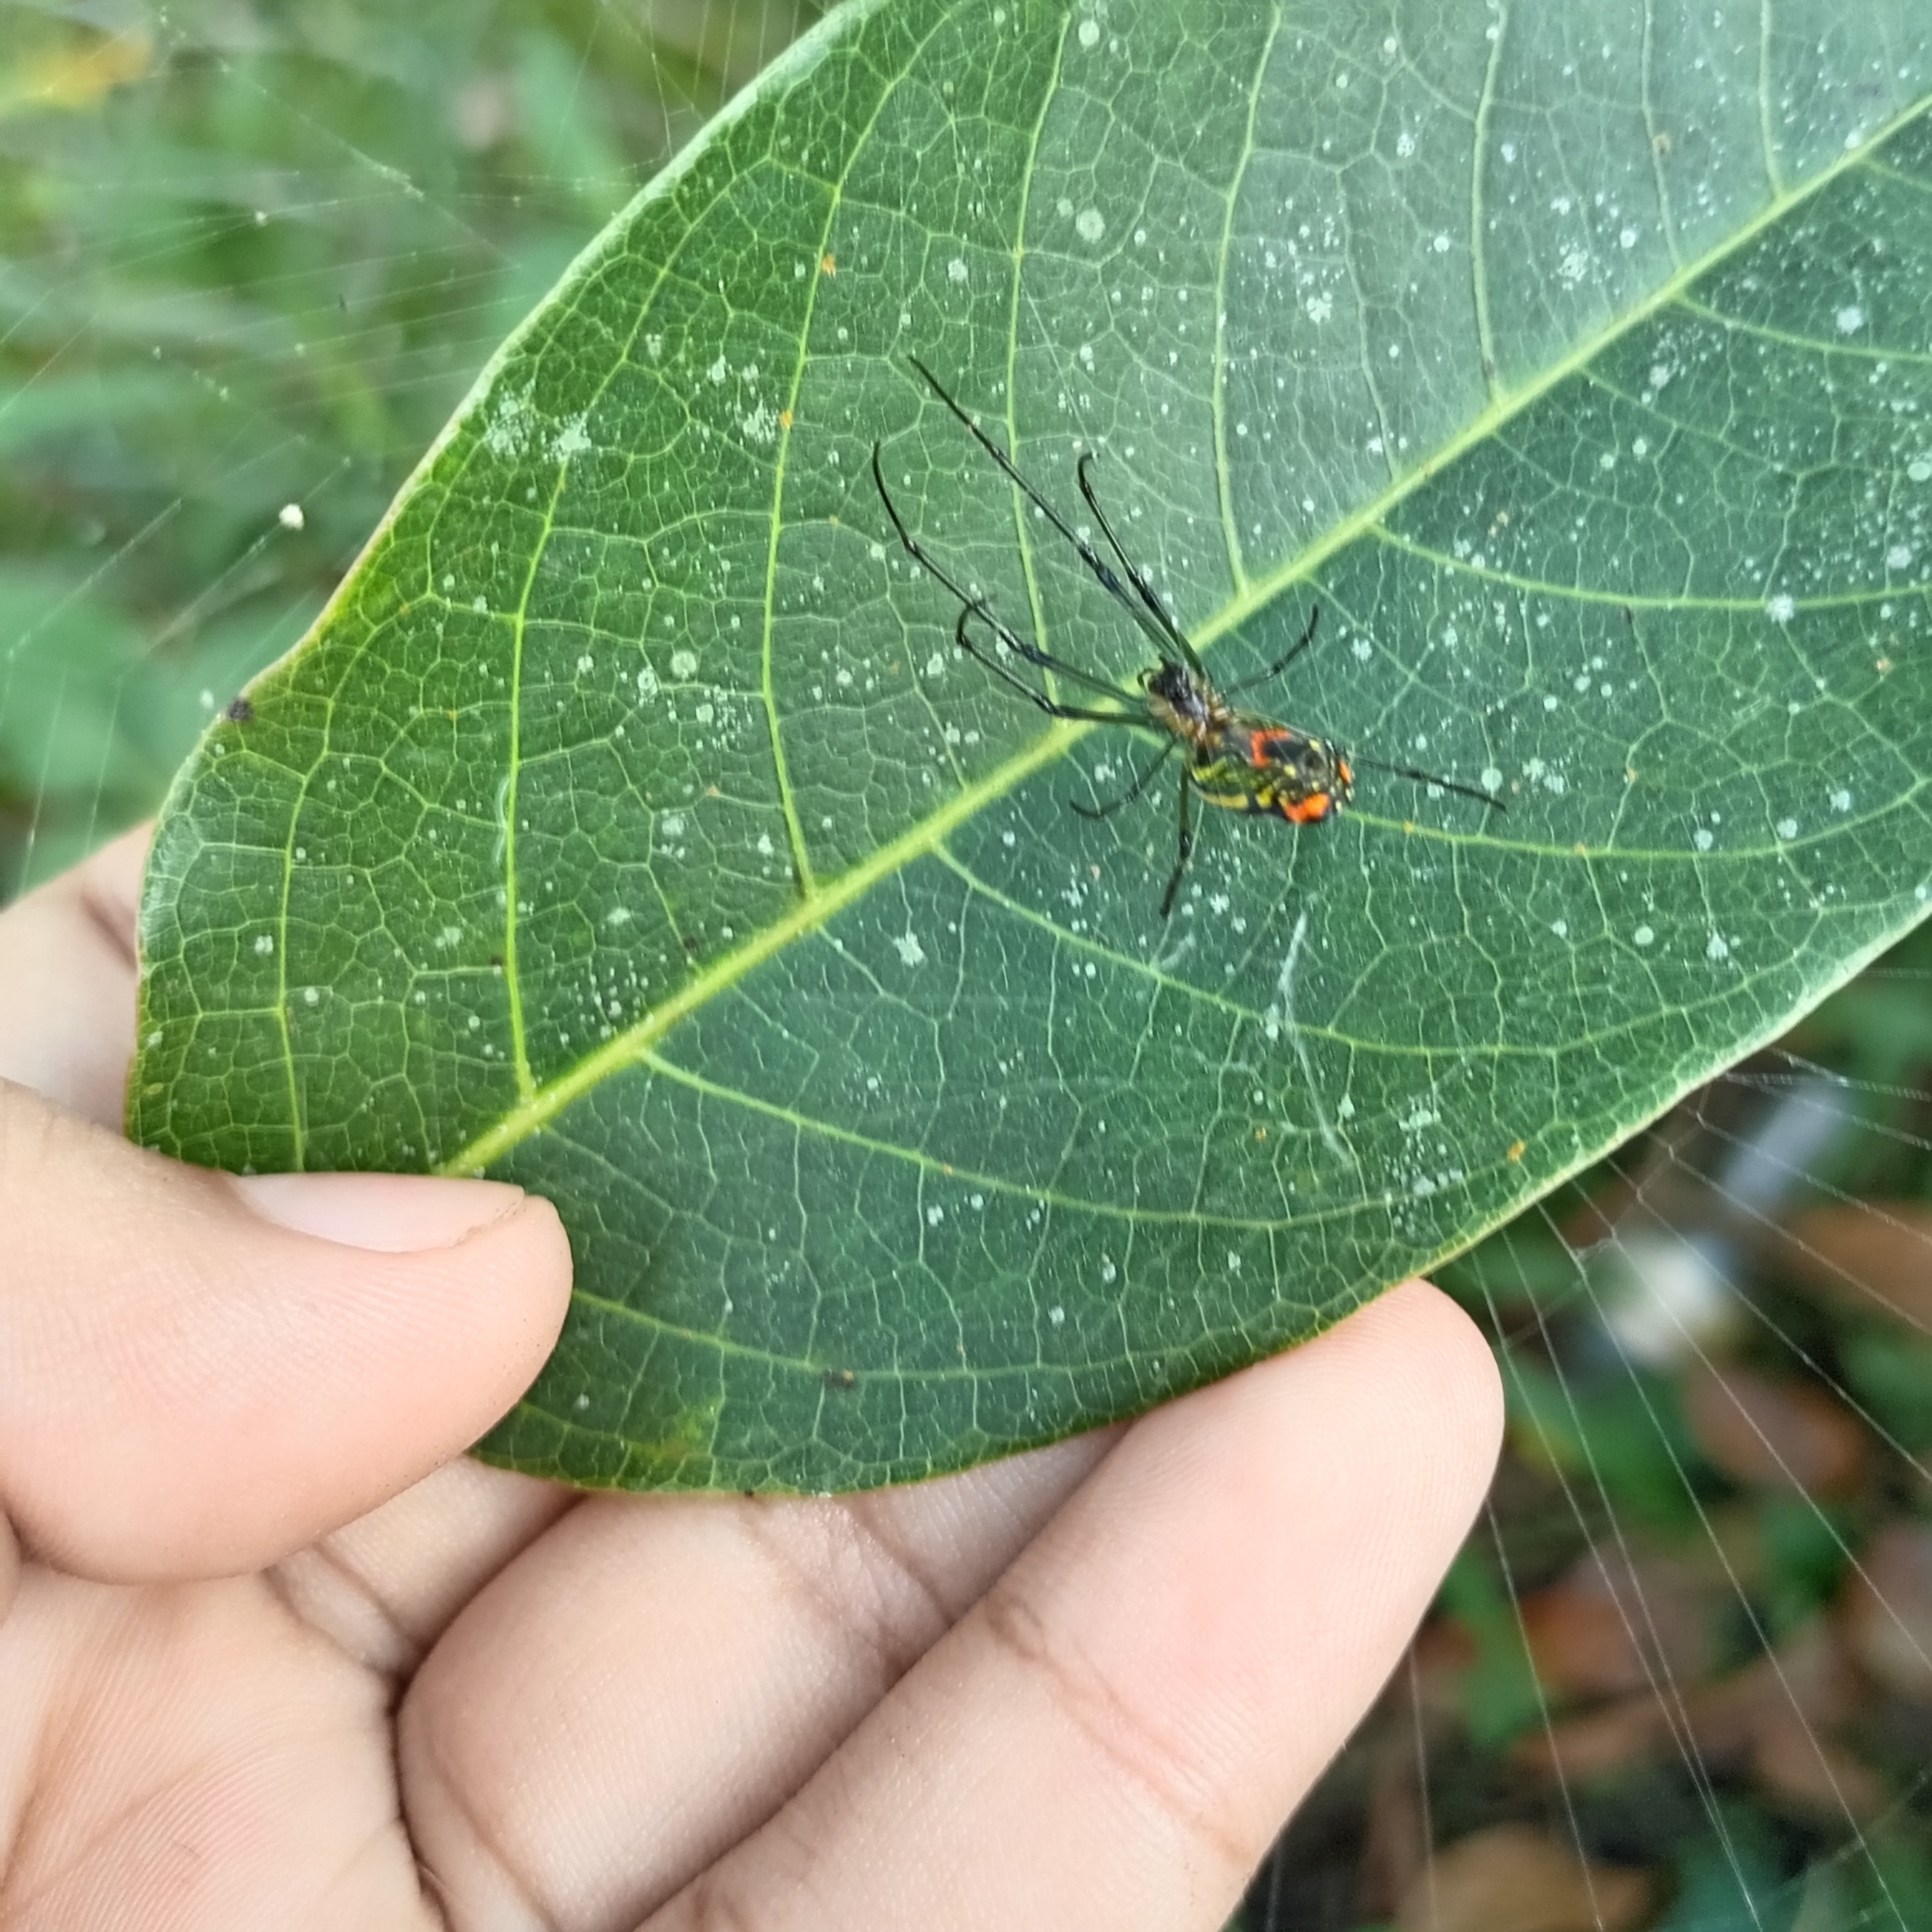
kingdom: Animalia
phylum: Arthropoda
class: Arachnida
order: Araneae
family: Tetragnathidae
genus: Leucauge
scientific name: Leucauge mariana
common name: Longjawed orb weavers
